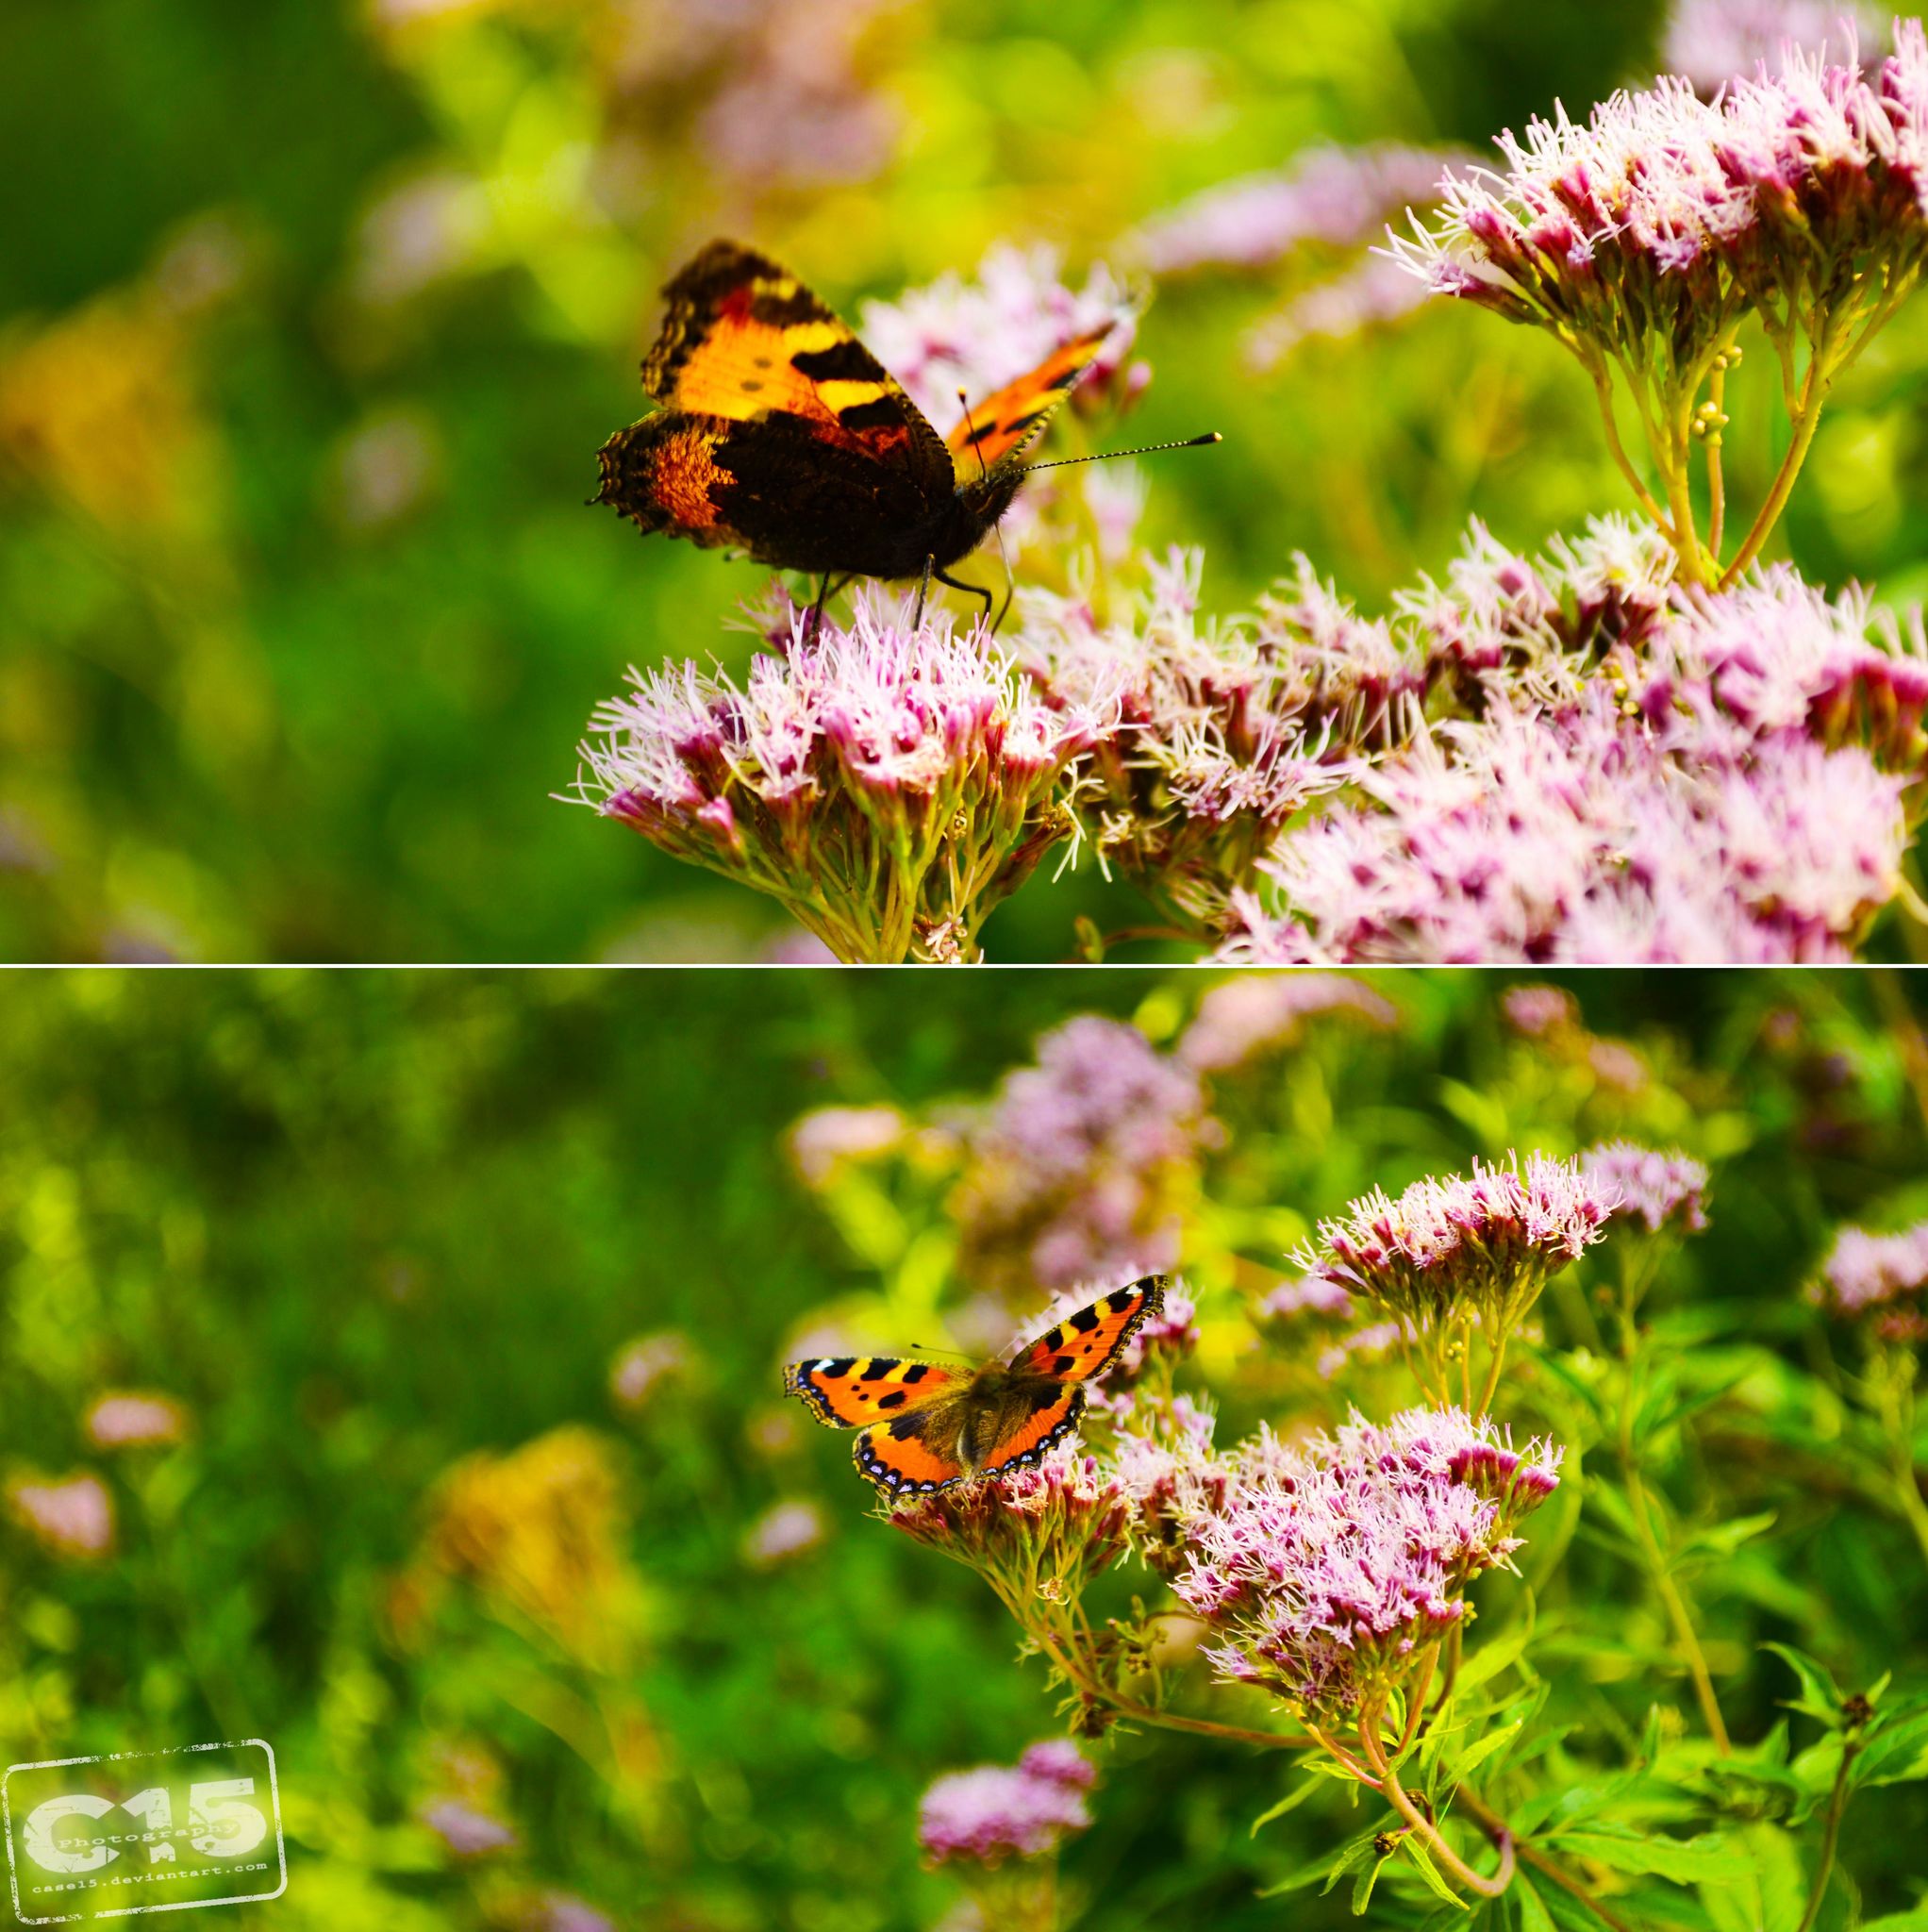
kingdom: Animalia
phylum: Arthropoda
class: Insecta
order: Lepidoptera
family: Nymphalidae
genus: Aglais
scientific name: Aglais urticae
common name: Small tortoiseshell
